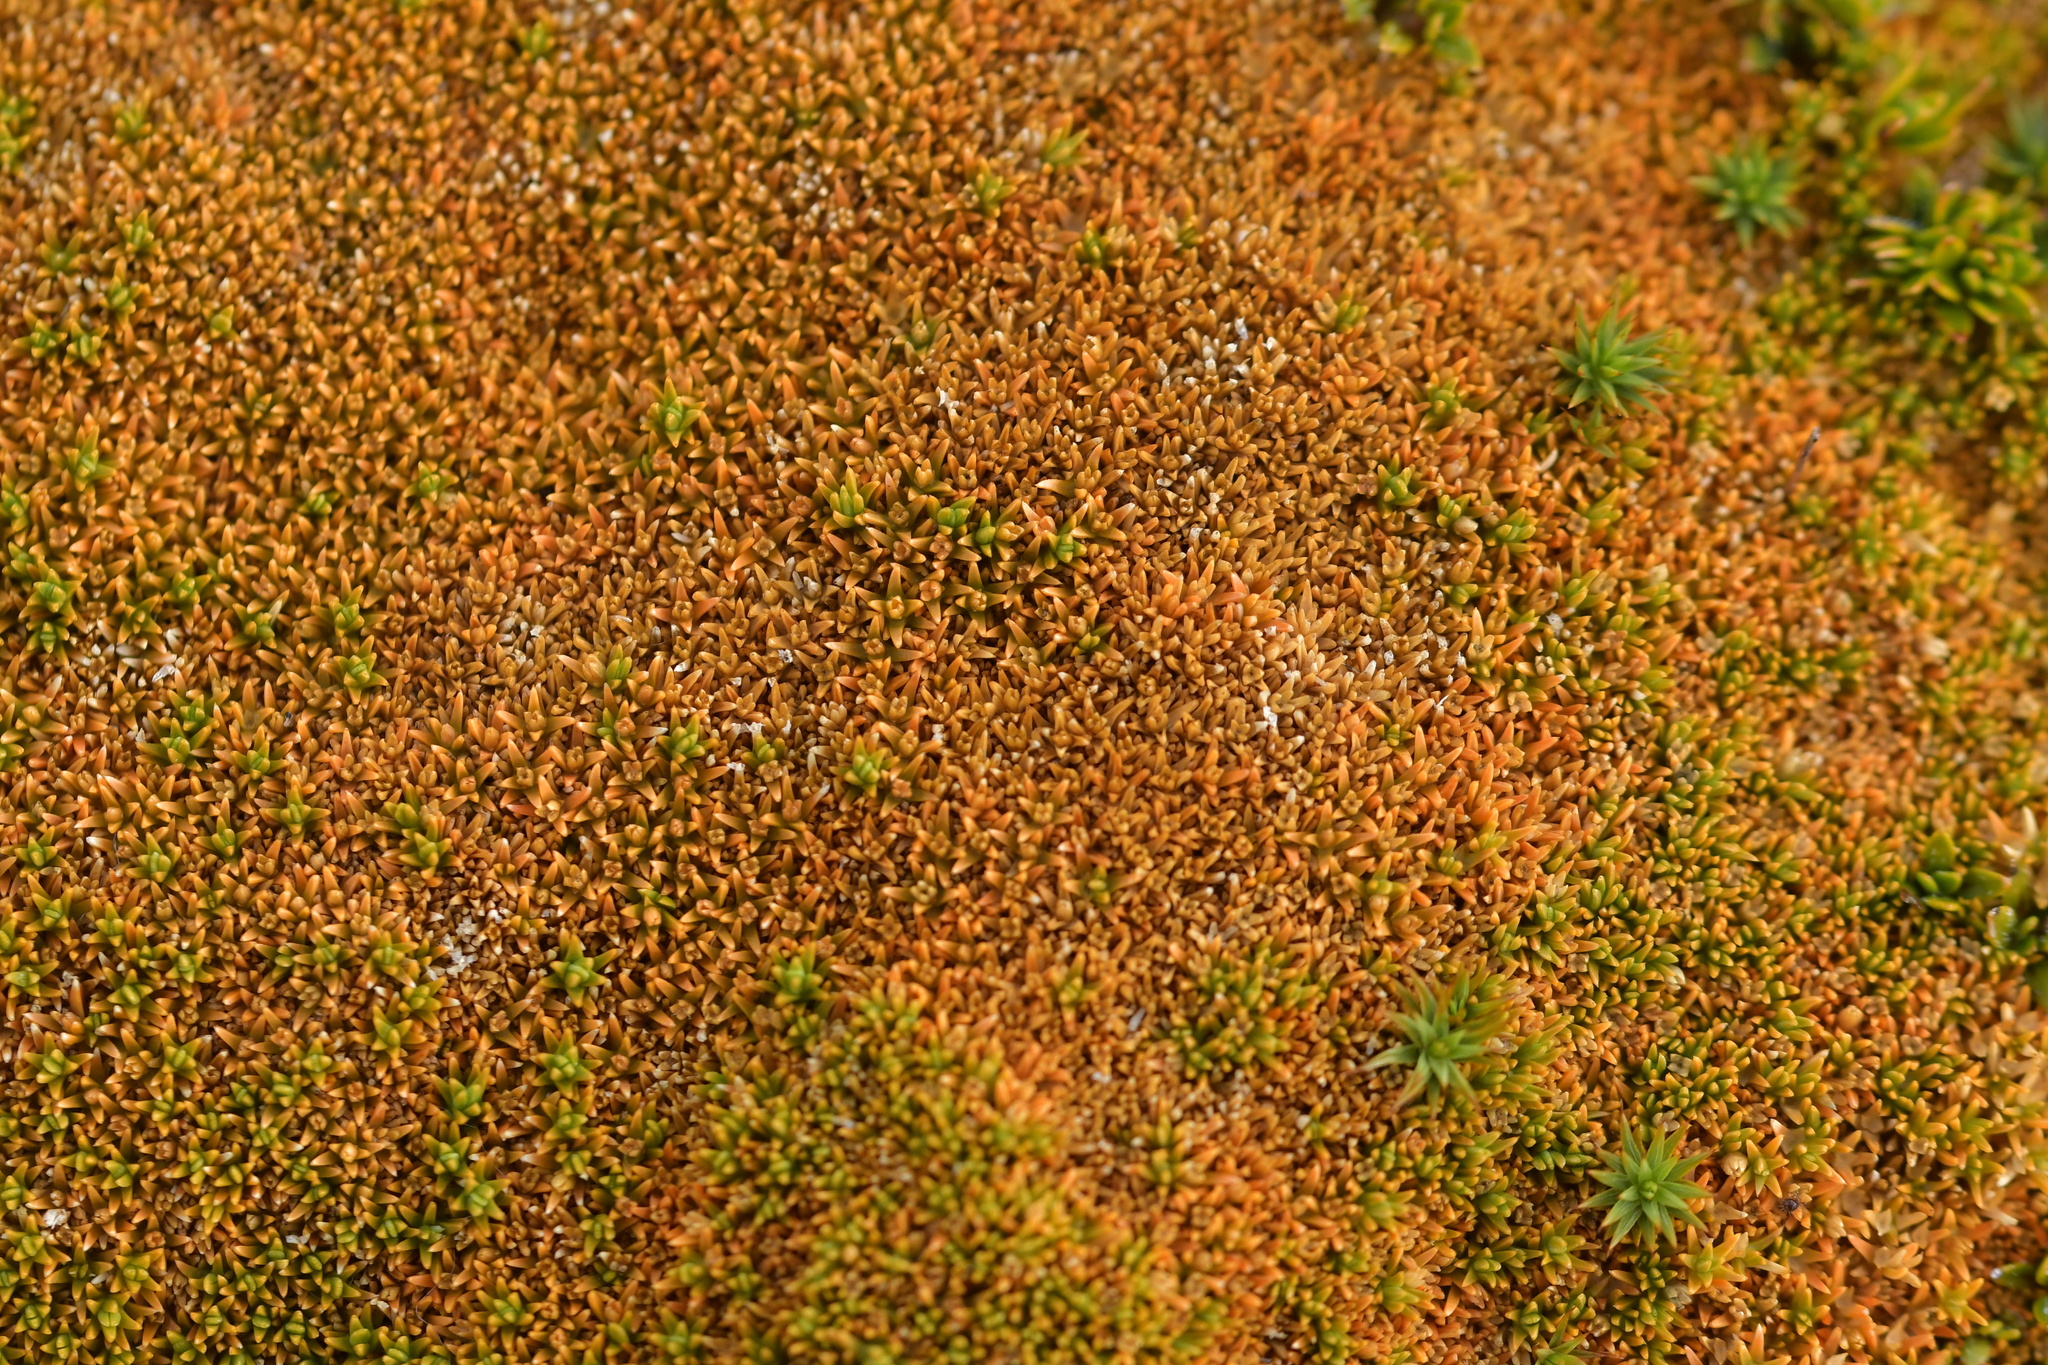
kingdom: Plantae
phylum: Tracheophyta
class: Magnoliopsida
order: Caryophyllales
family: Caryophyllaceae
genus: Scleranthus
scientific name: Scleranthus uniflorus
